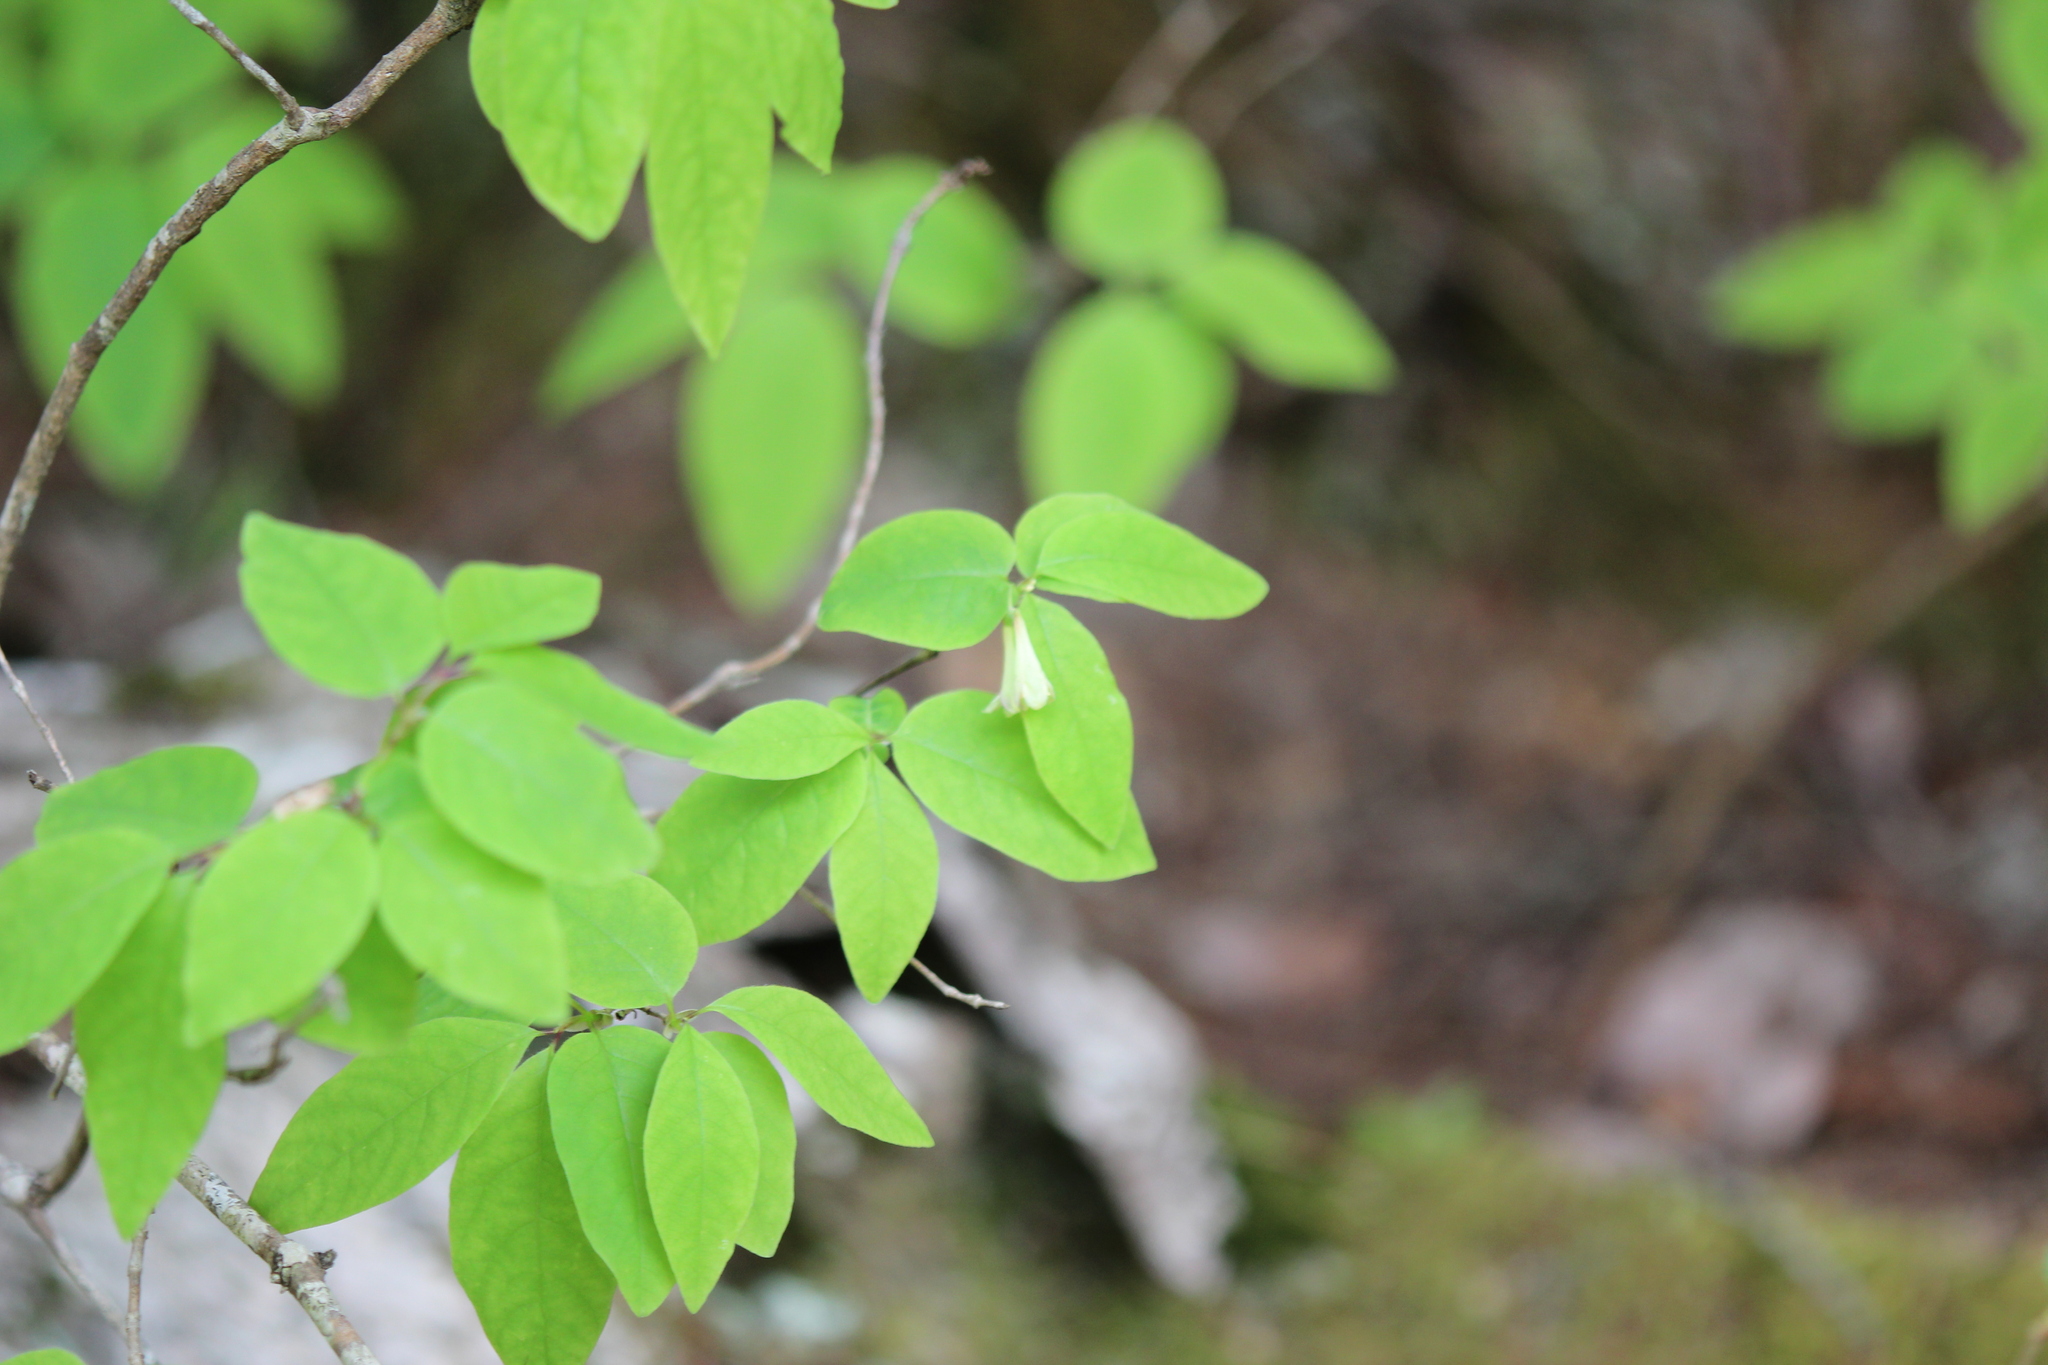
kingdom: Plantae
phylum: Tracheophyta
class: Magnoliopsida
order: Dipsacales
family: Caprifoliaceae
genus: Lonicera
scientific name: Lonicera canadensis
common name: American fly-honeysuckle
